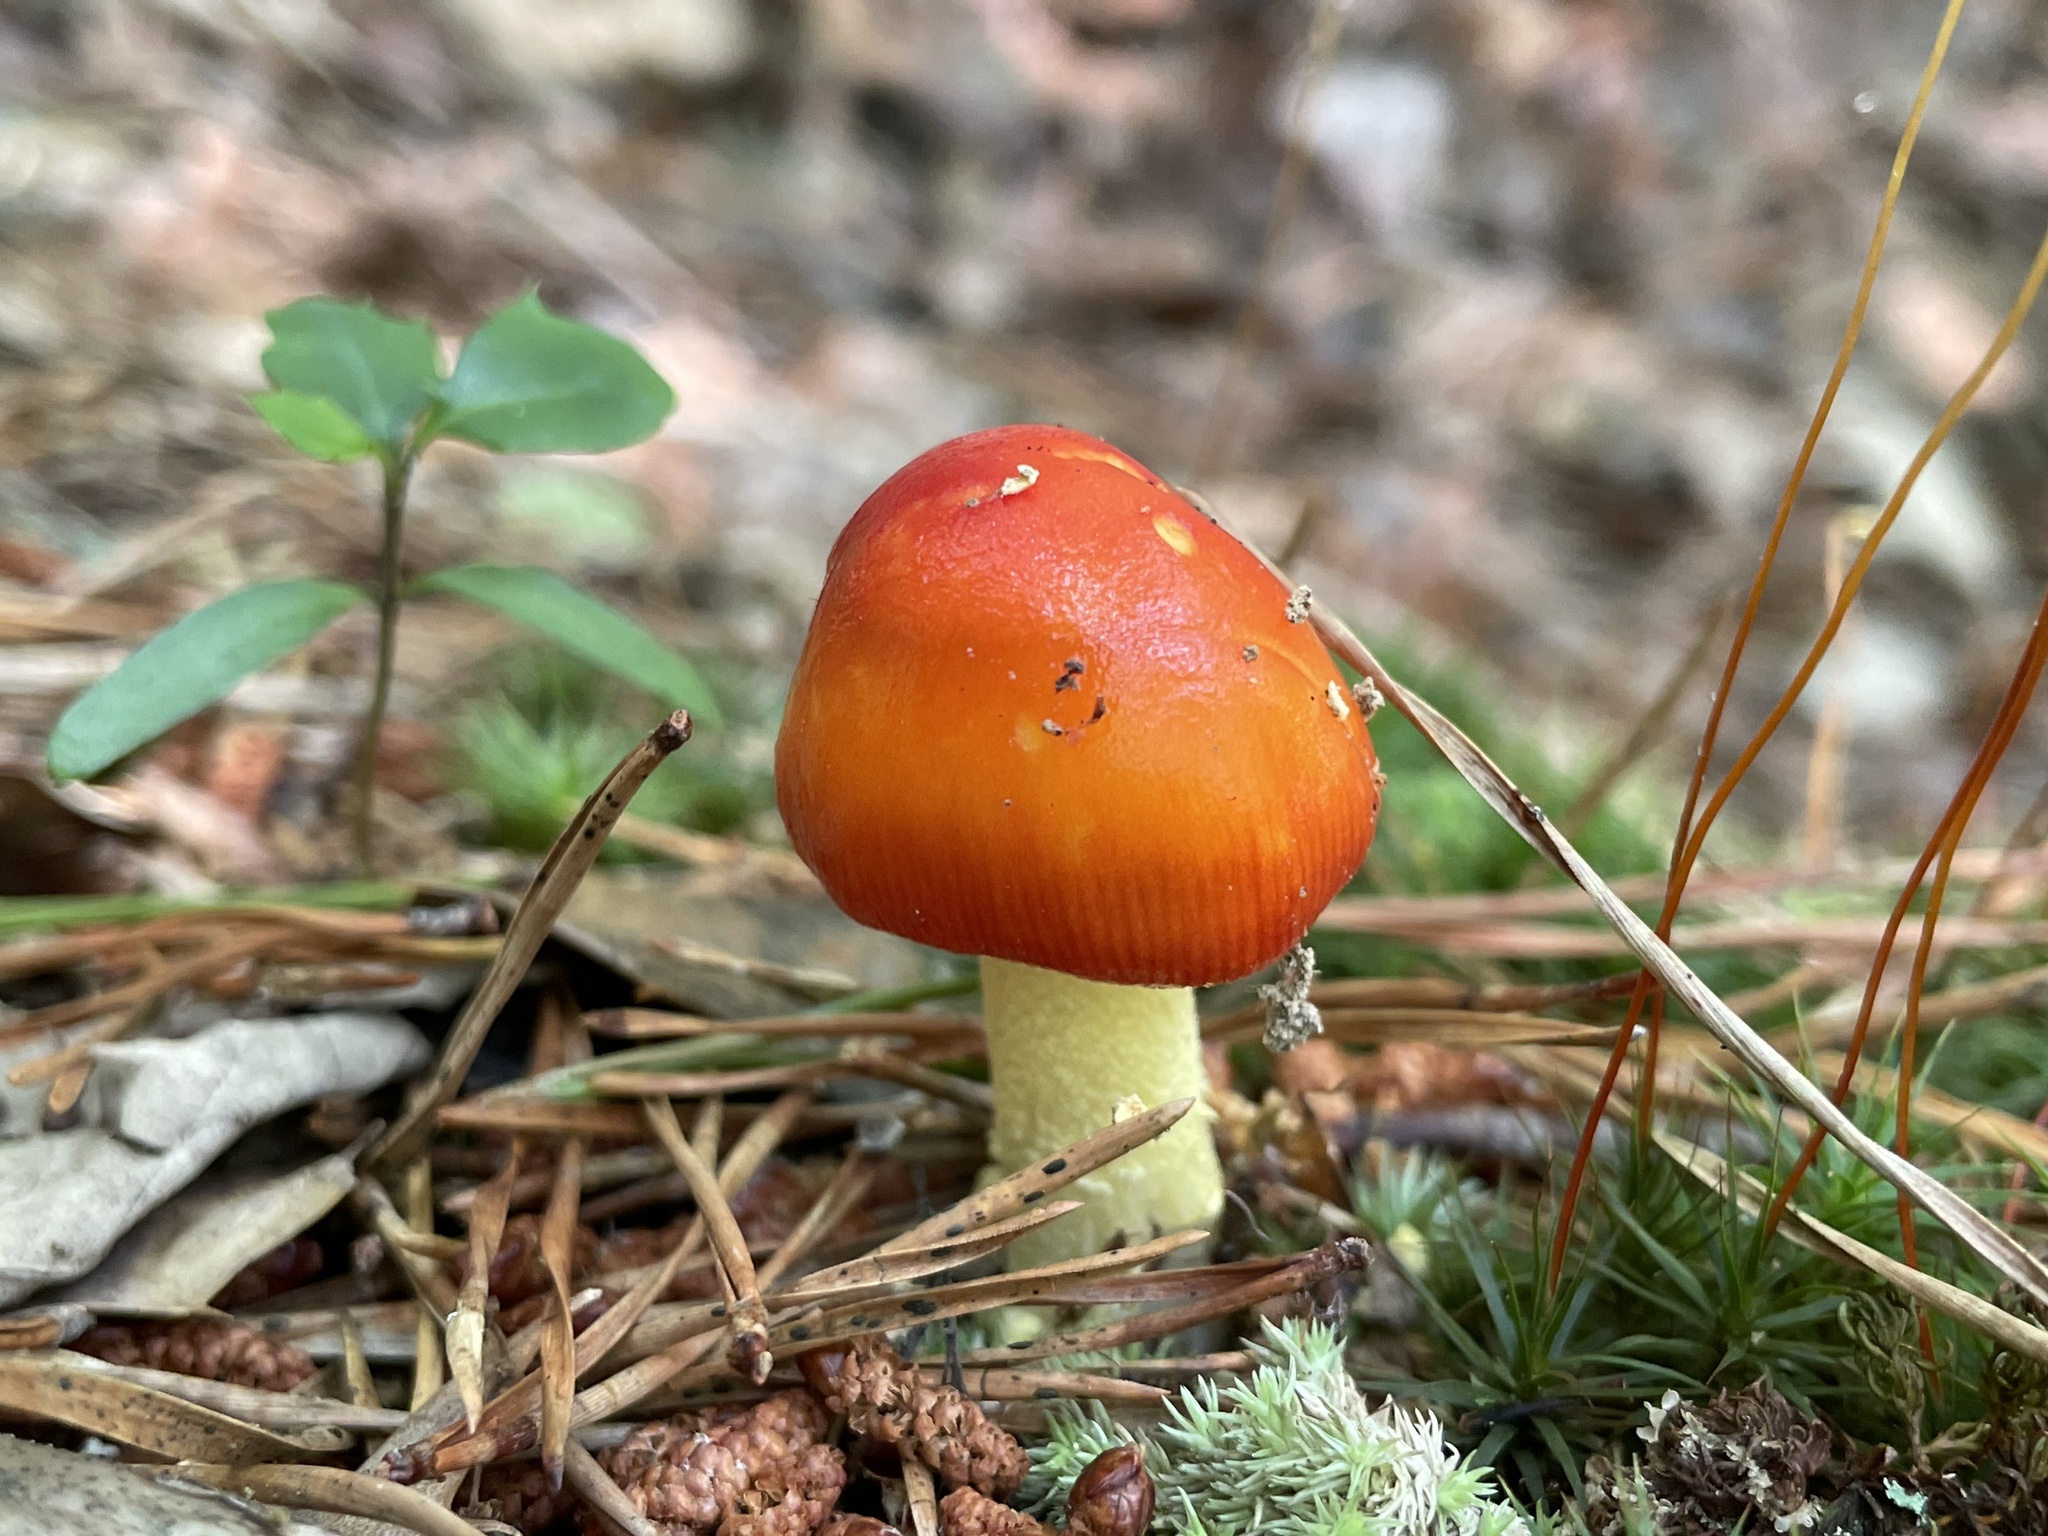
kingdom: Fungi
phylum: Basidiomycota
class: Agaricomycetes
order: Agaricales
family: Amanitaceae
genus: Amanita
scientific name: Amanita parcivolvata
